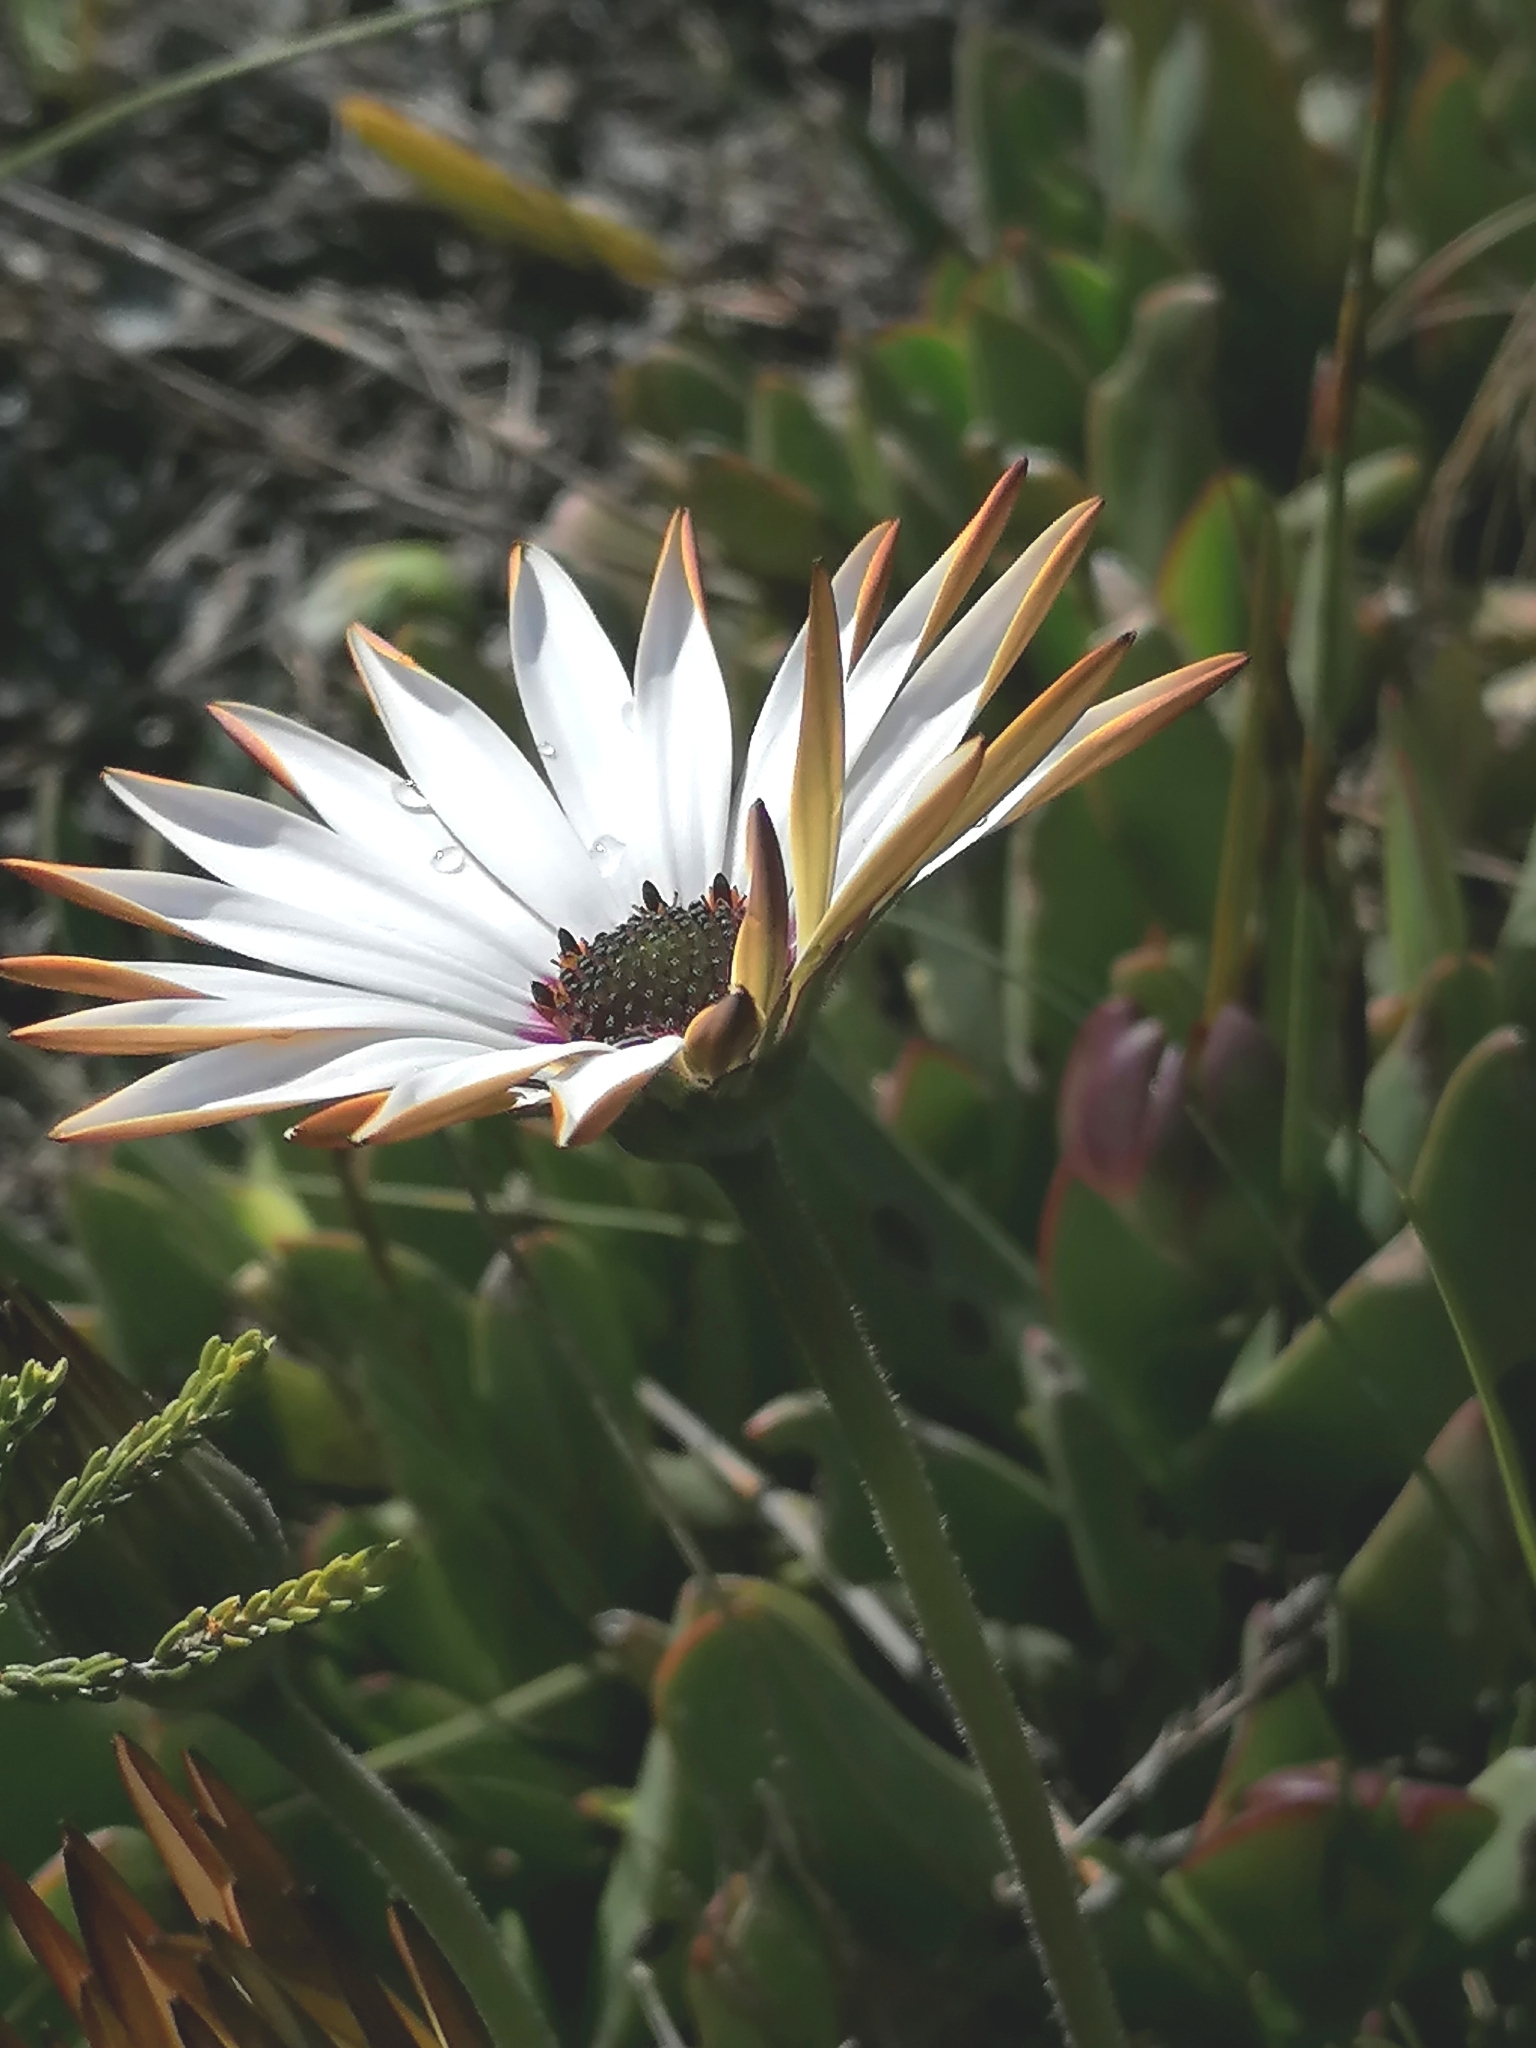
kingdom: Plantae
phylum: Tracheophyta
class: Magnoliopsida
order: Asterales
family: Asteraceae
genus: Dimorphotheca
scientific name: Dimorphotheca nudicaulis
